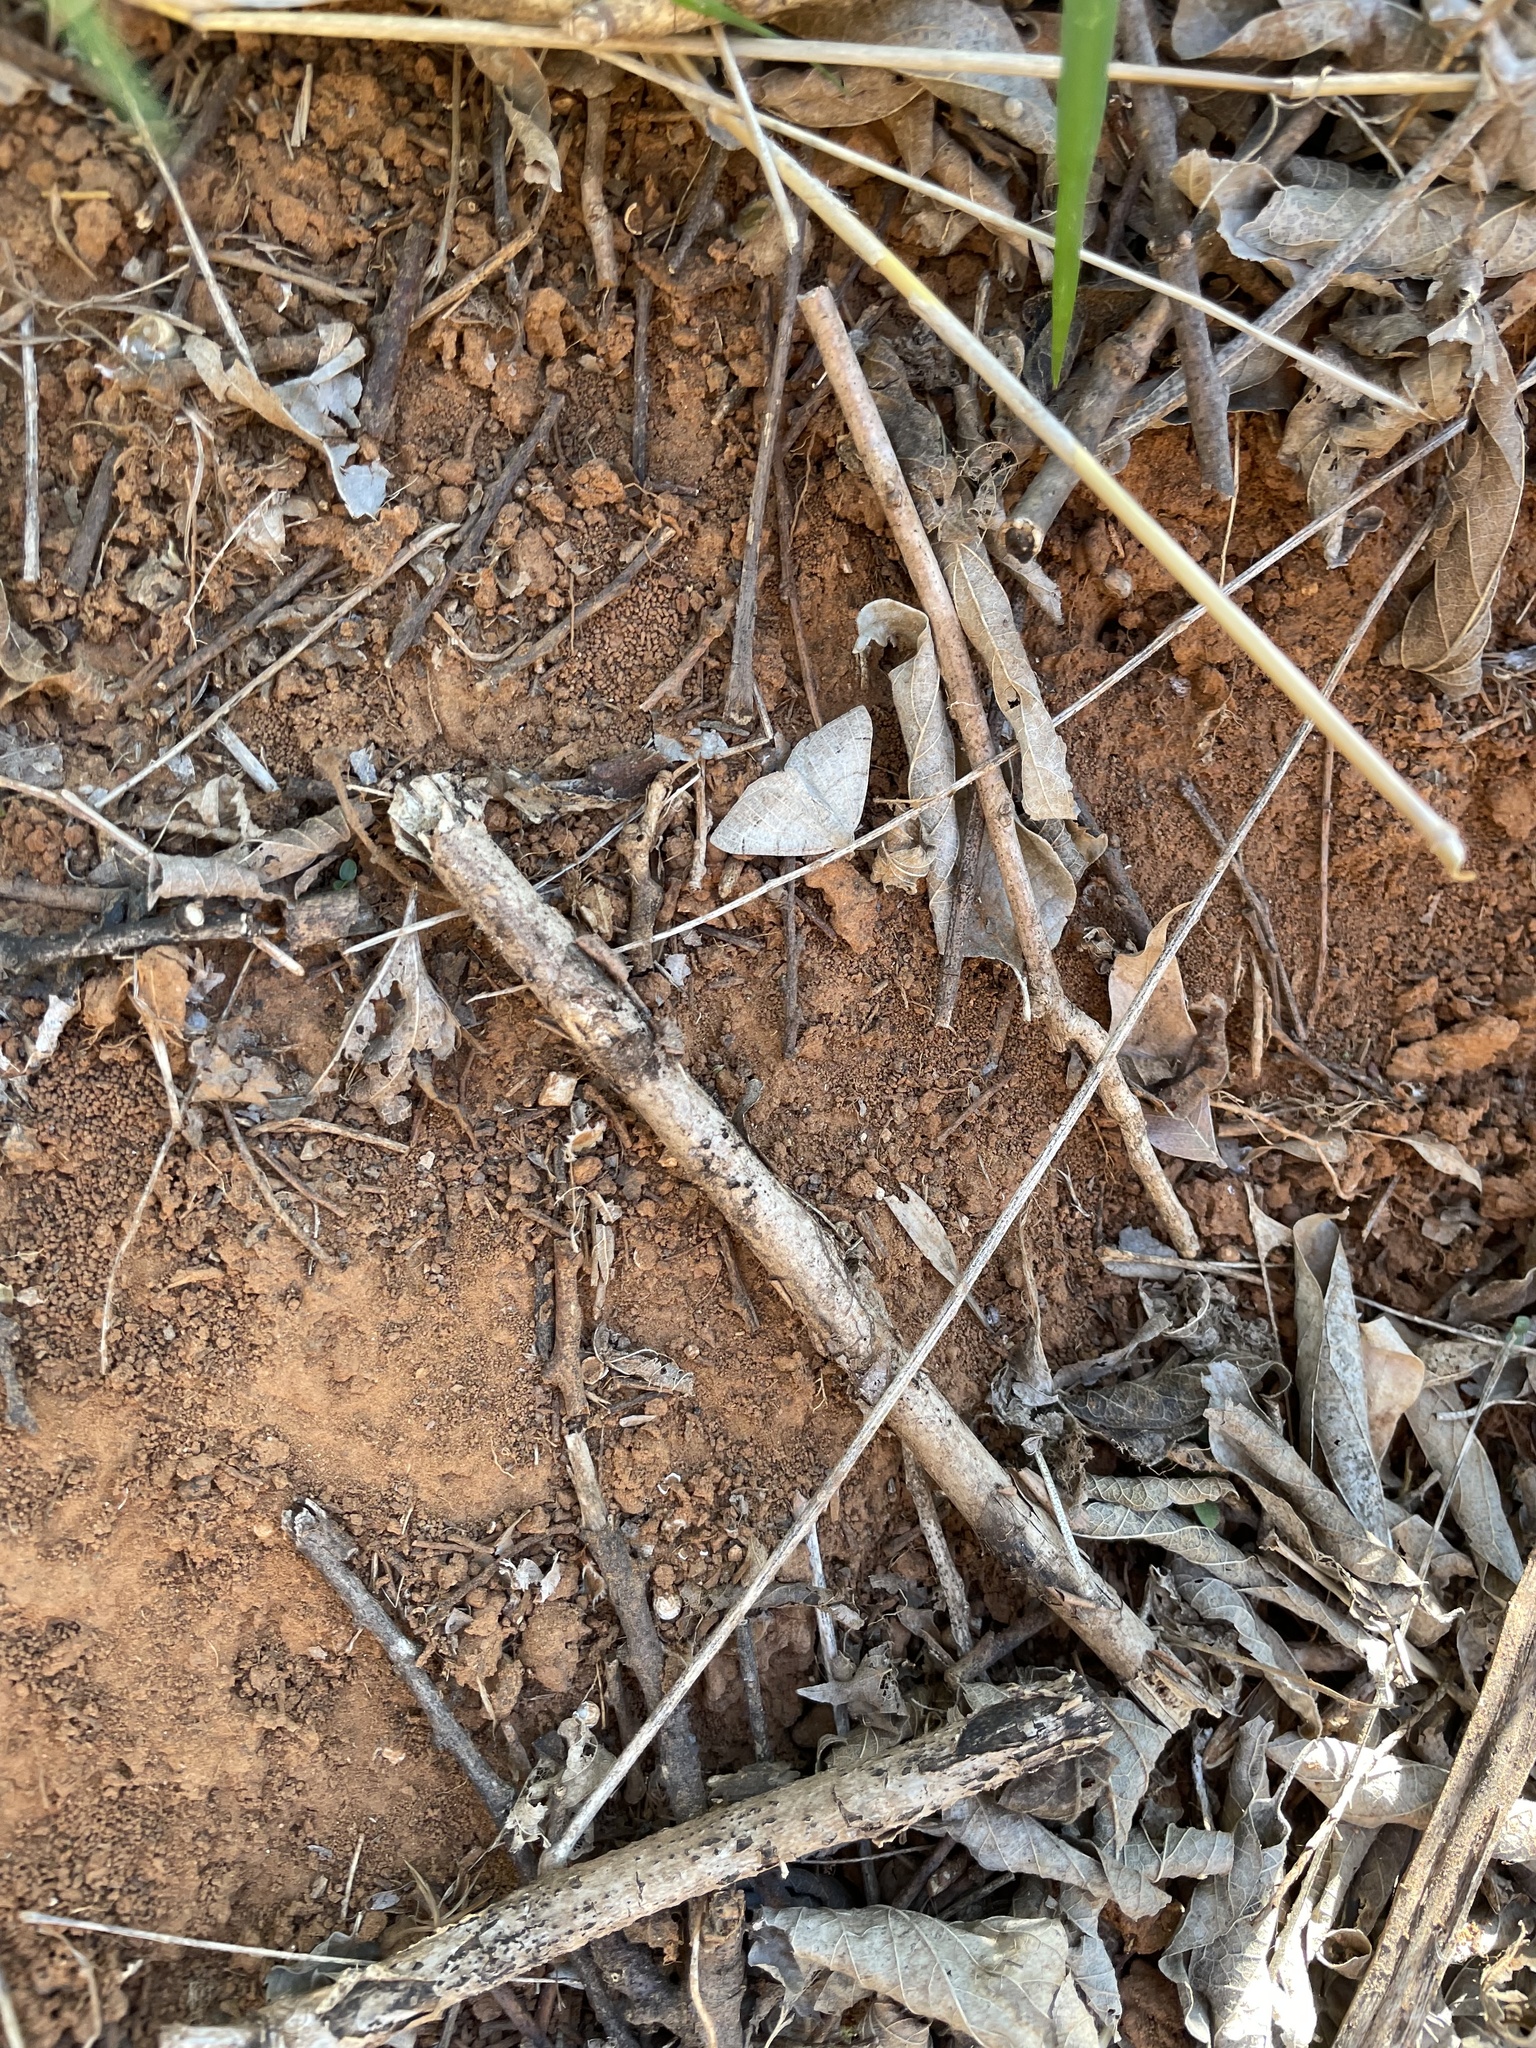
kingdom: Animalia
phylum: Arthropoda
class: Insecta
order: Lepidoptera
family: Geometridae
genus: Isturgia
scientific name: Isturgia dislocaria
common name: Pale-viened enconista
